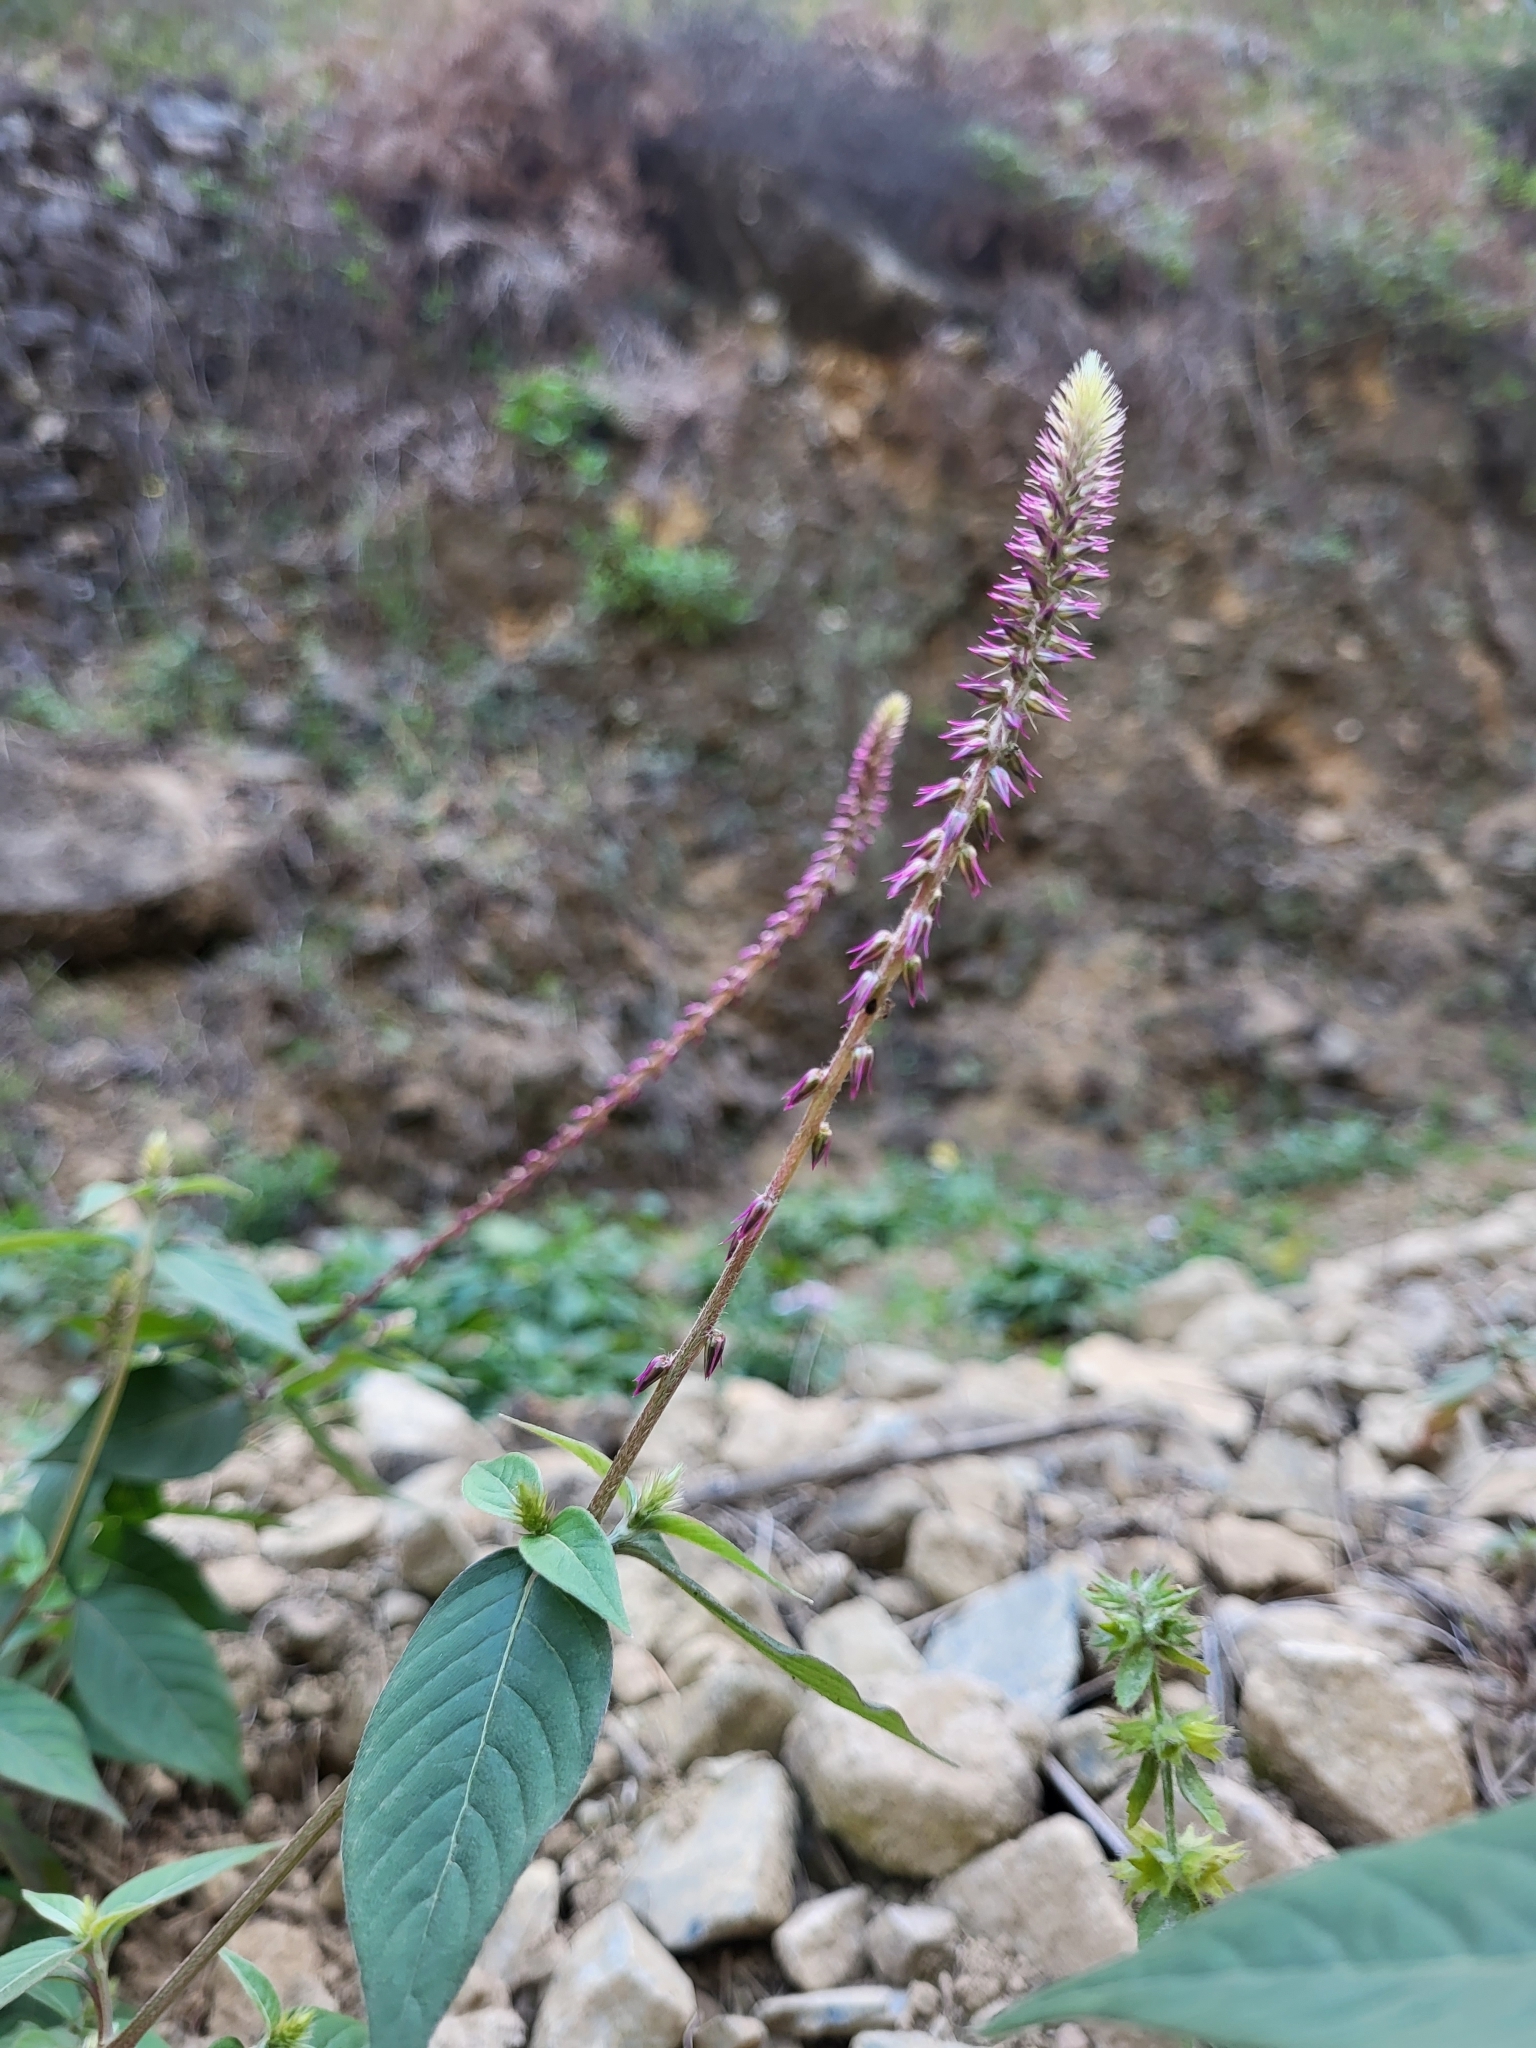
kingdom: Plantae
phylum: Tracheophyta
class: Magnoliopsida
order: Caryophyllales
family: Amaranthaceae
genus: Achyranthes
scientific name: Achyranthes aspera
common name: Devil's horsewhip
